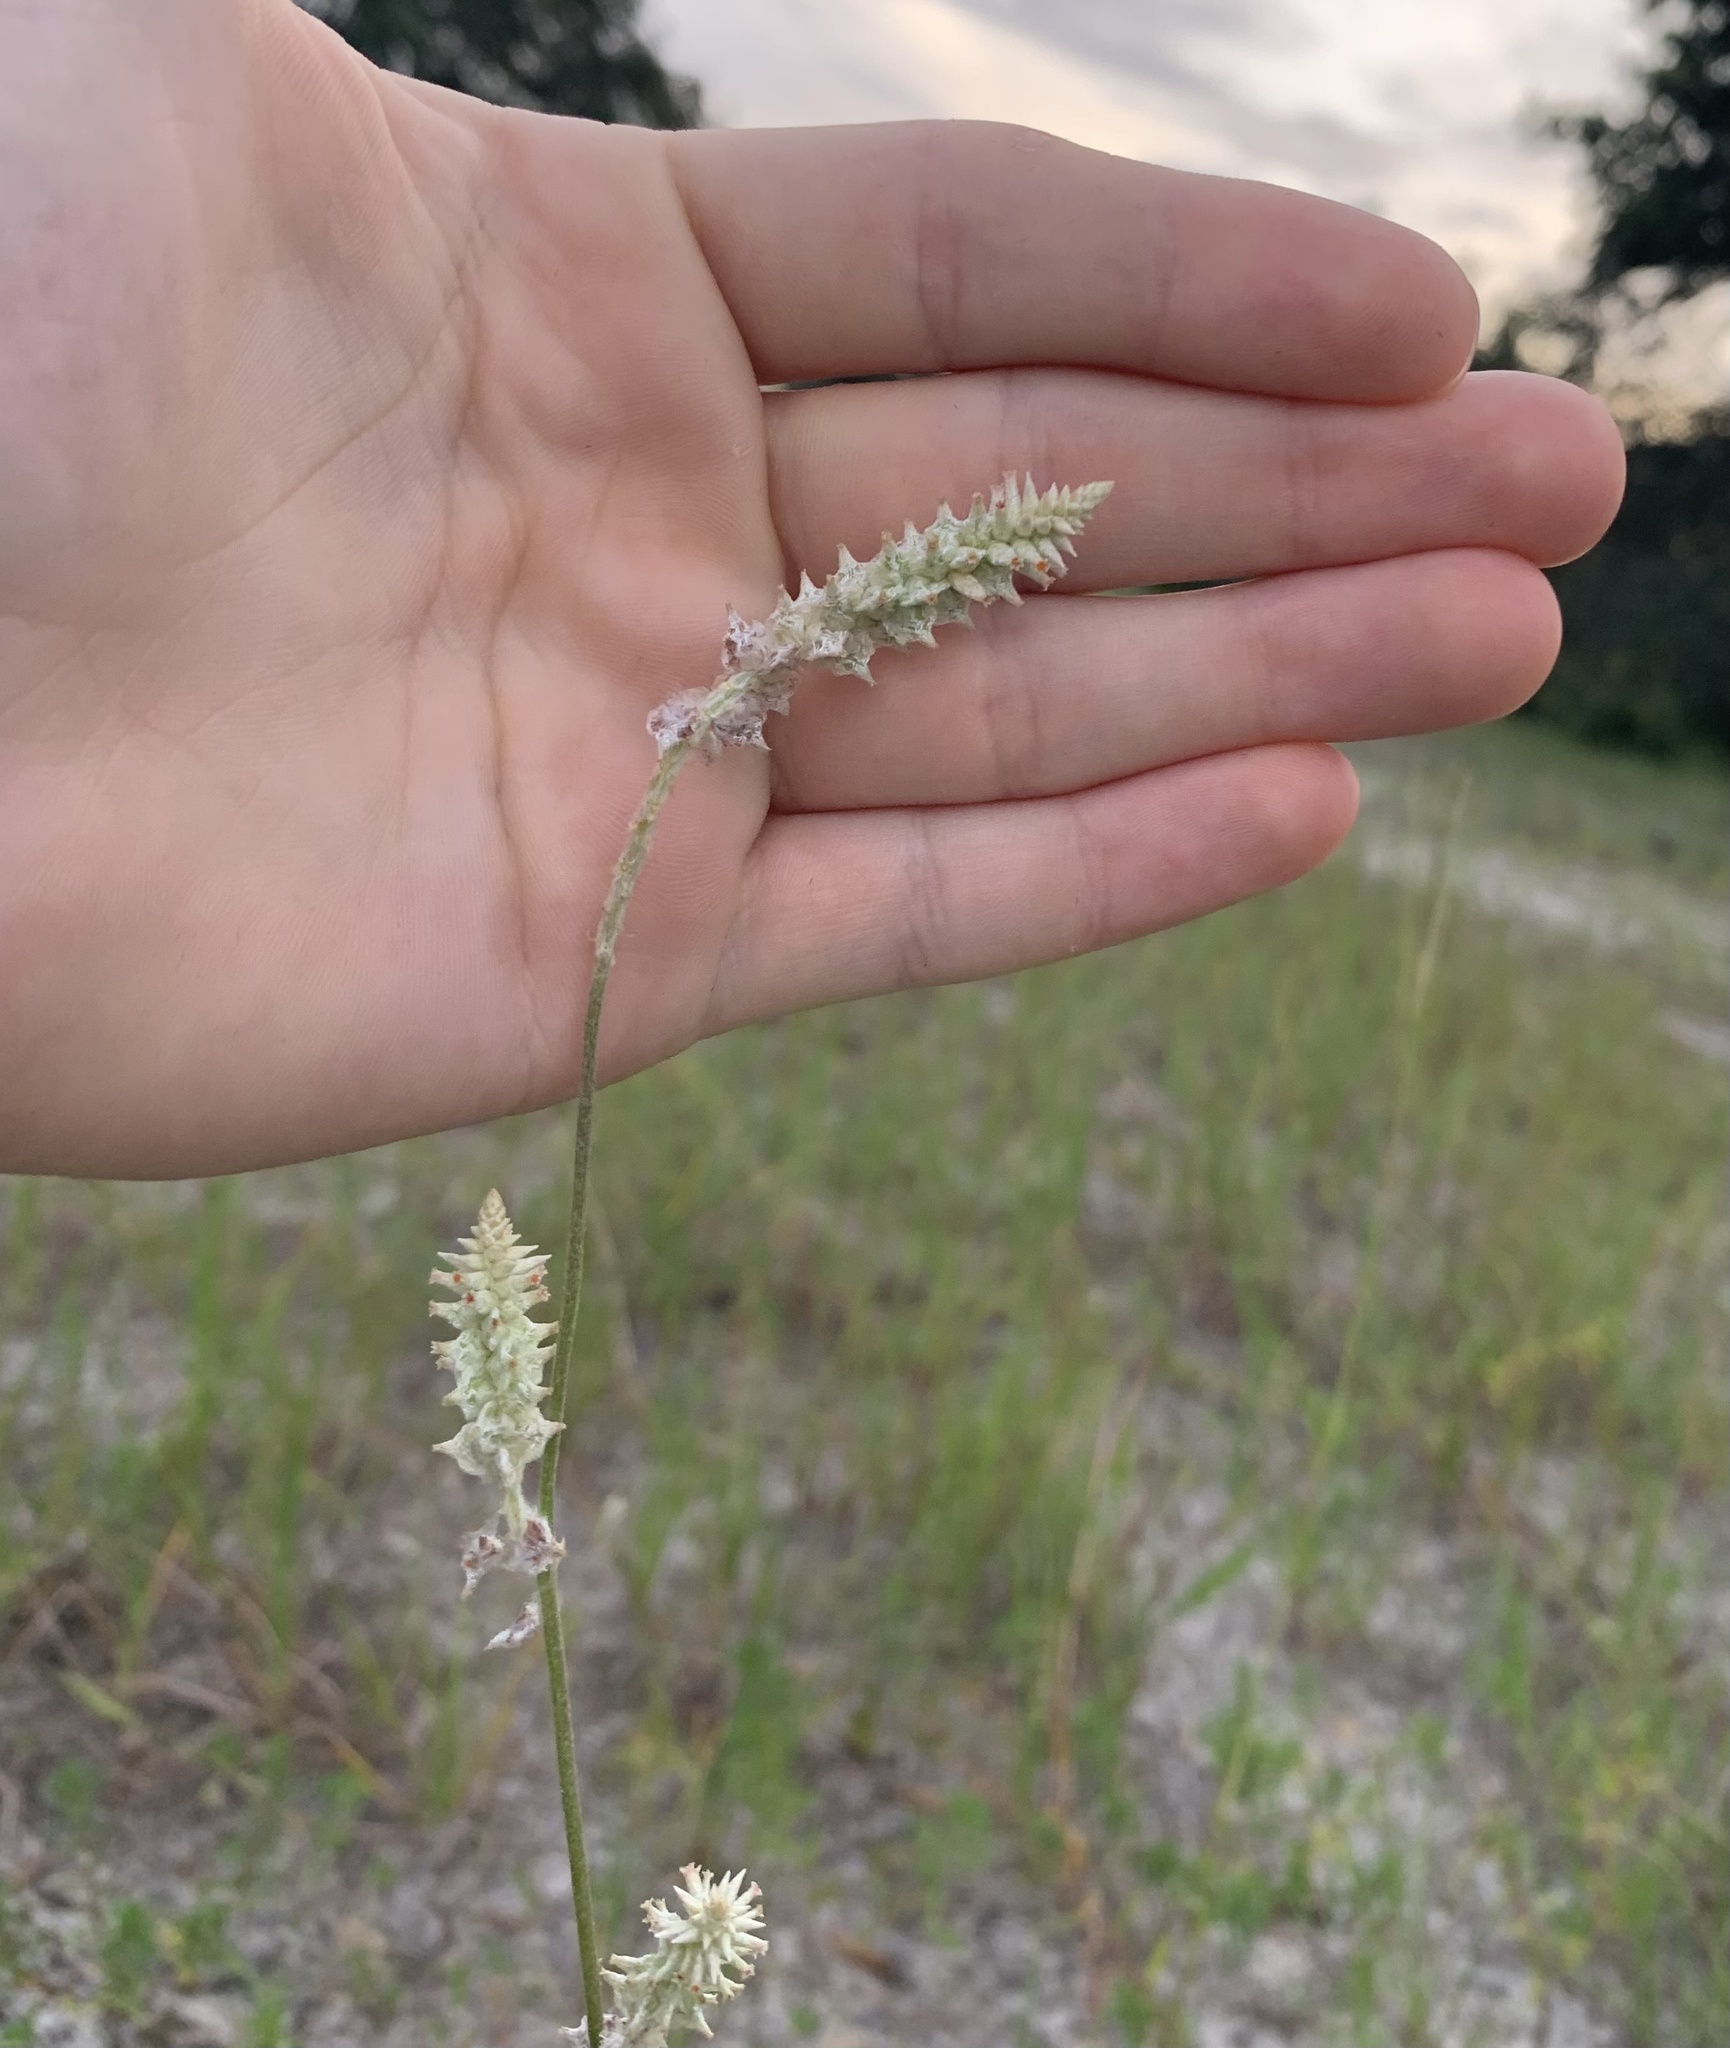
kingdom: Plantae
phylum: Tracheophyta
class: Magnoliopsida
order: Caryophyllales
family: Amaranthaceae
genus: Froelichia
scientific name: Froelichia floridana
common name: Florida snake-cotton
